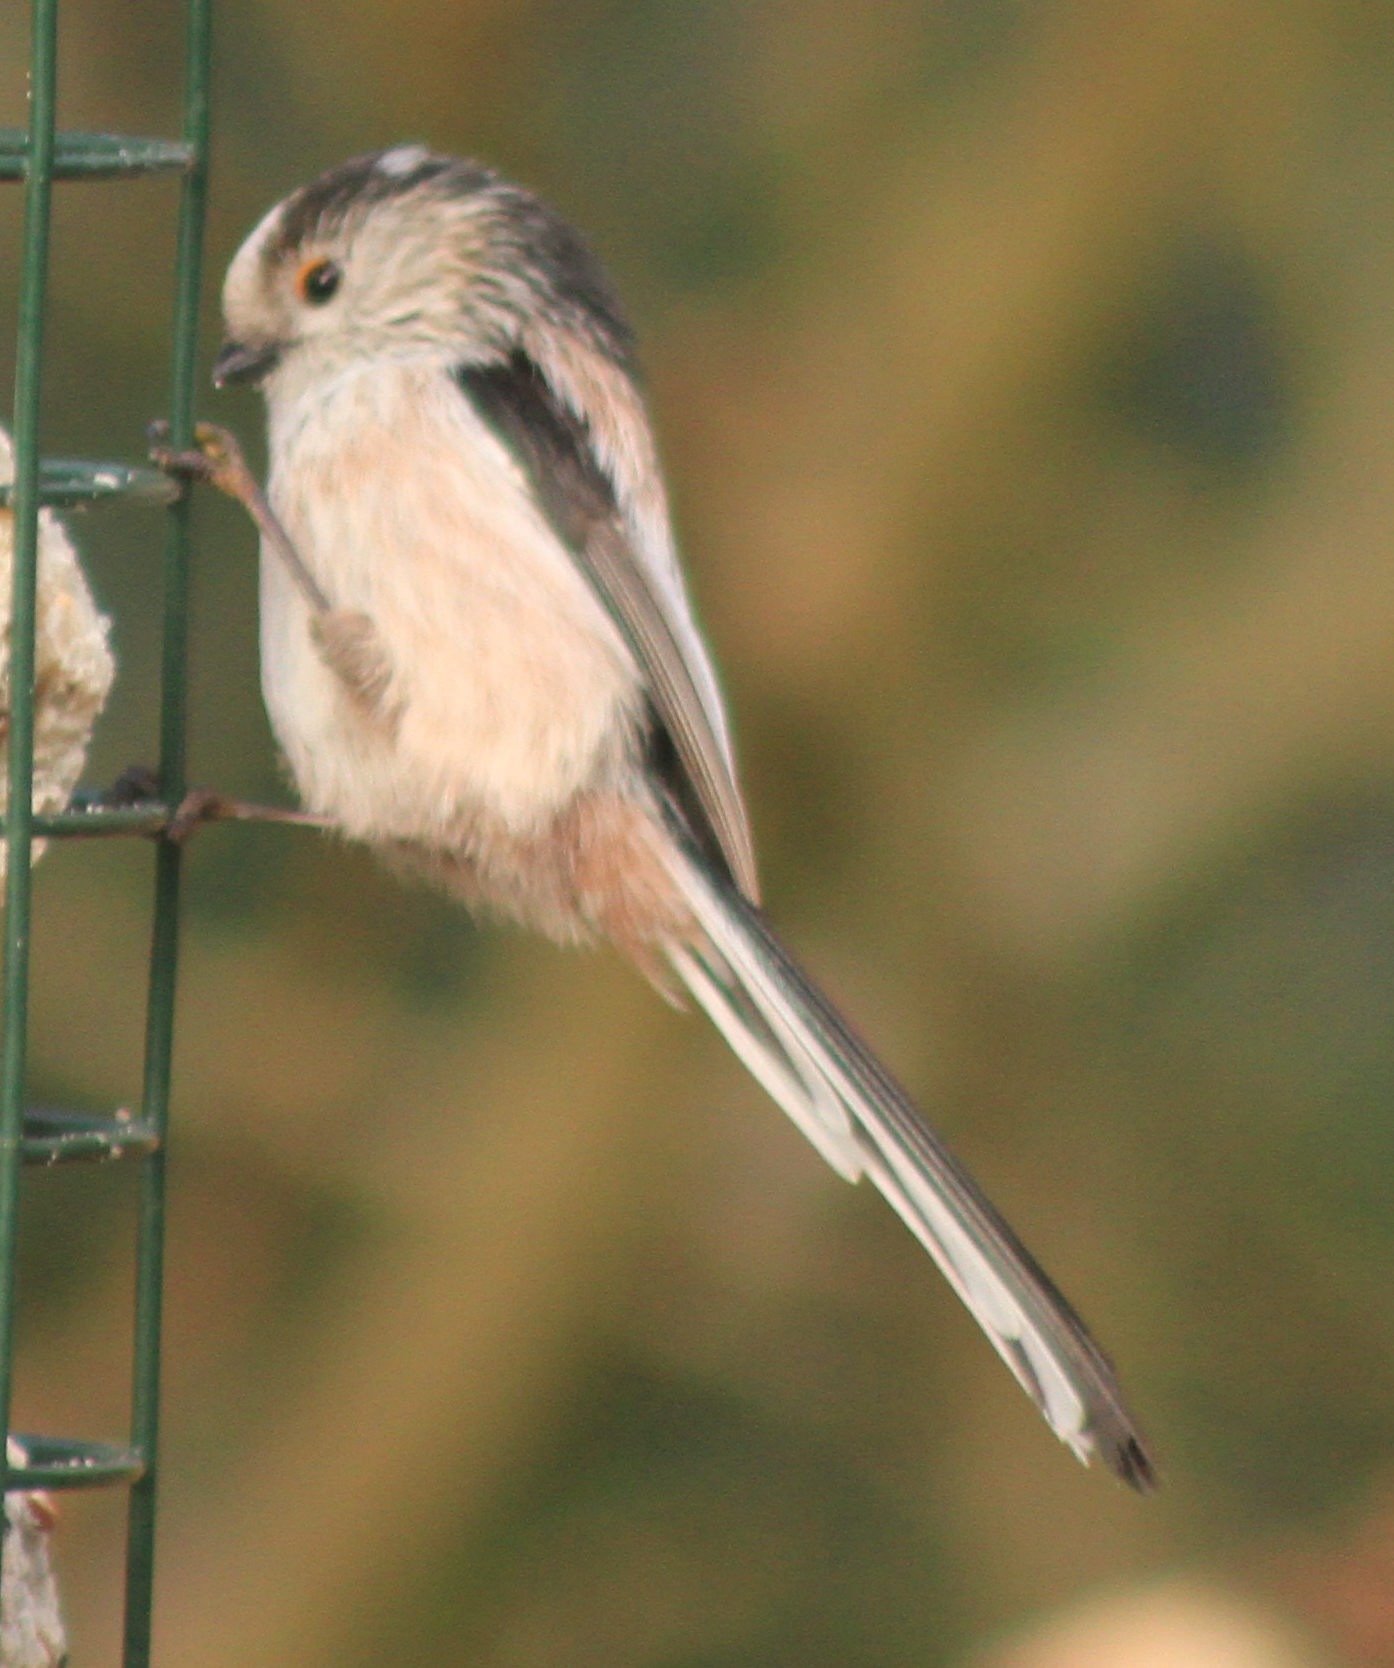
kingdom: Animalia
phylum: Chordata
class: Aves
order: Passeriformes
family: Aegithalidae
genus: Aegithalos
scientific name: Aegithalos caudatus
